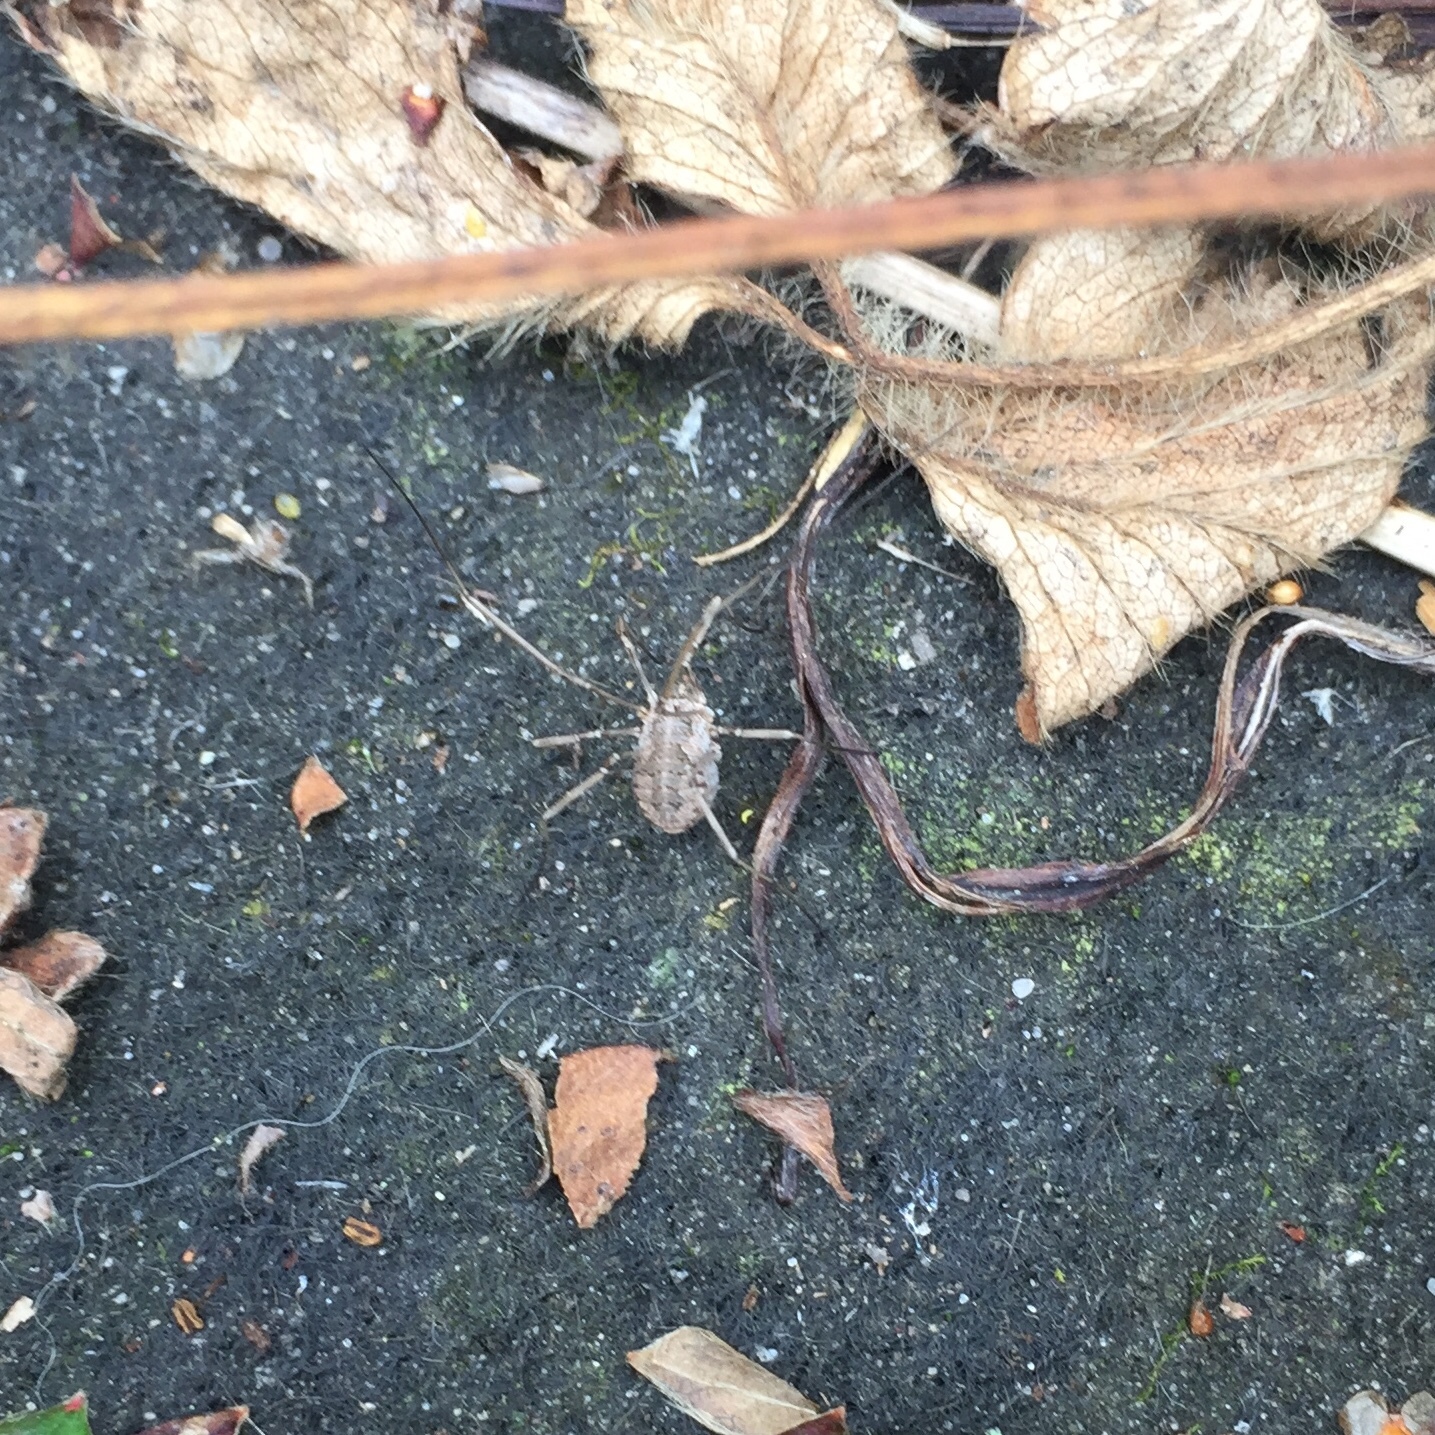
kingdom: Animalia
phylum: Arthropoda
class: Arachnida
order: Opiliones
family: Phalangiidae
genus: Phalangium
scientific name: Phalangium opilio
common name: Daddy longleg
